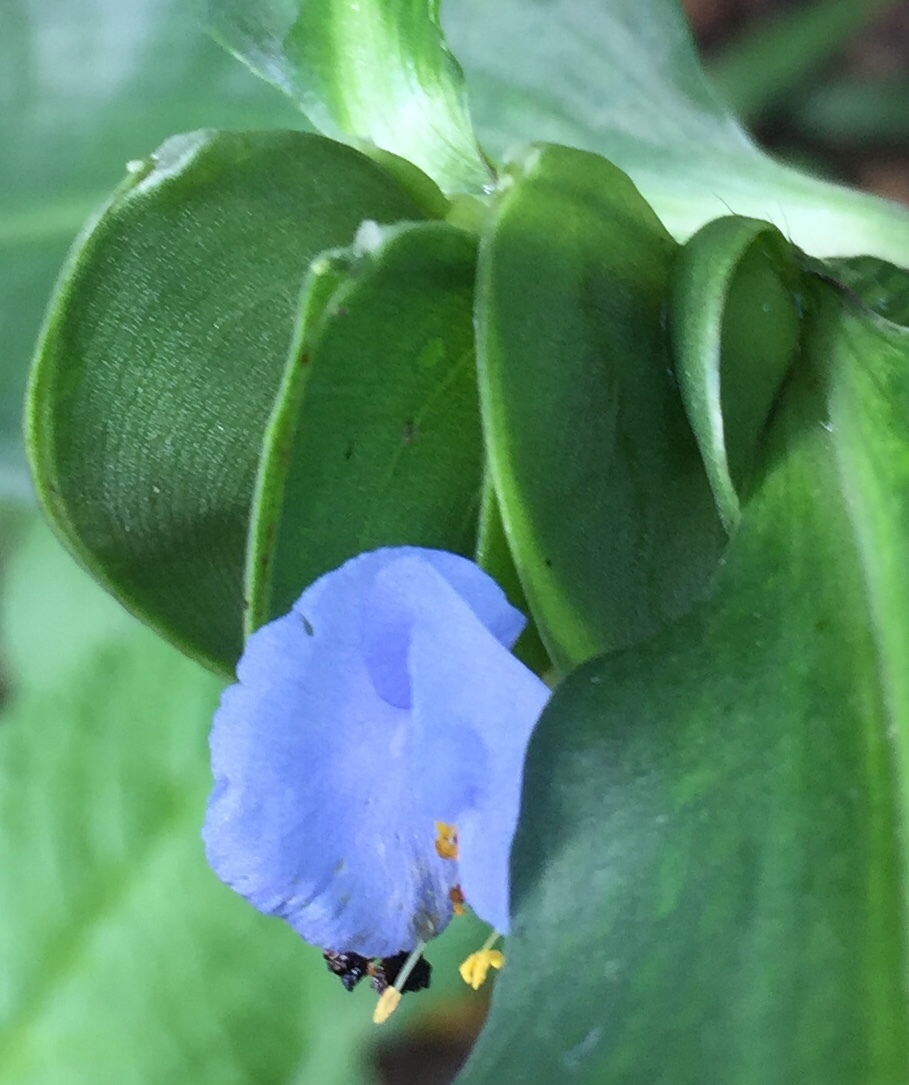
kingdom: Plantae
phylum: Tracheophyta
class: Liliopsida
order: Commelinales
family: Commelinaceae
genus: Commelina
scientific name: Commelina virginica
